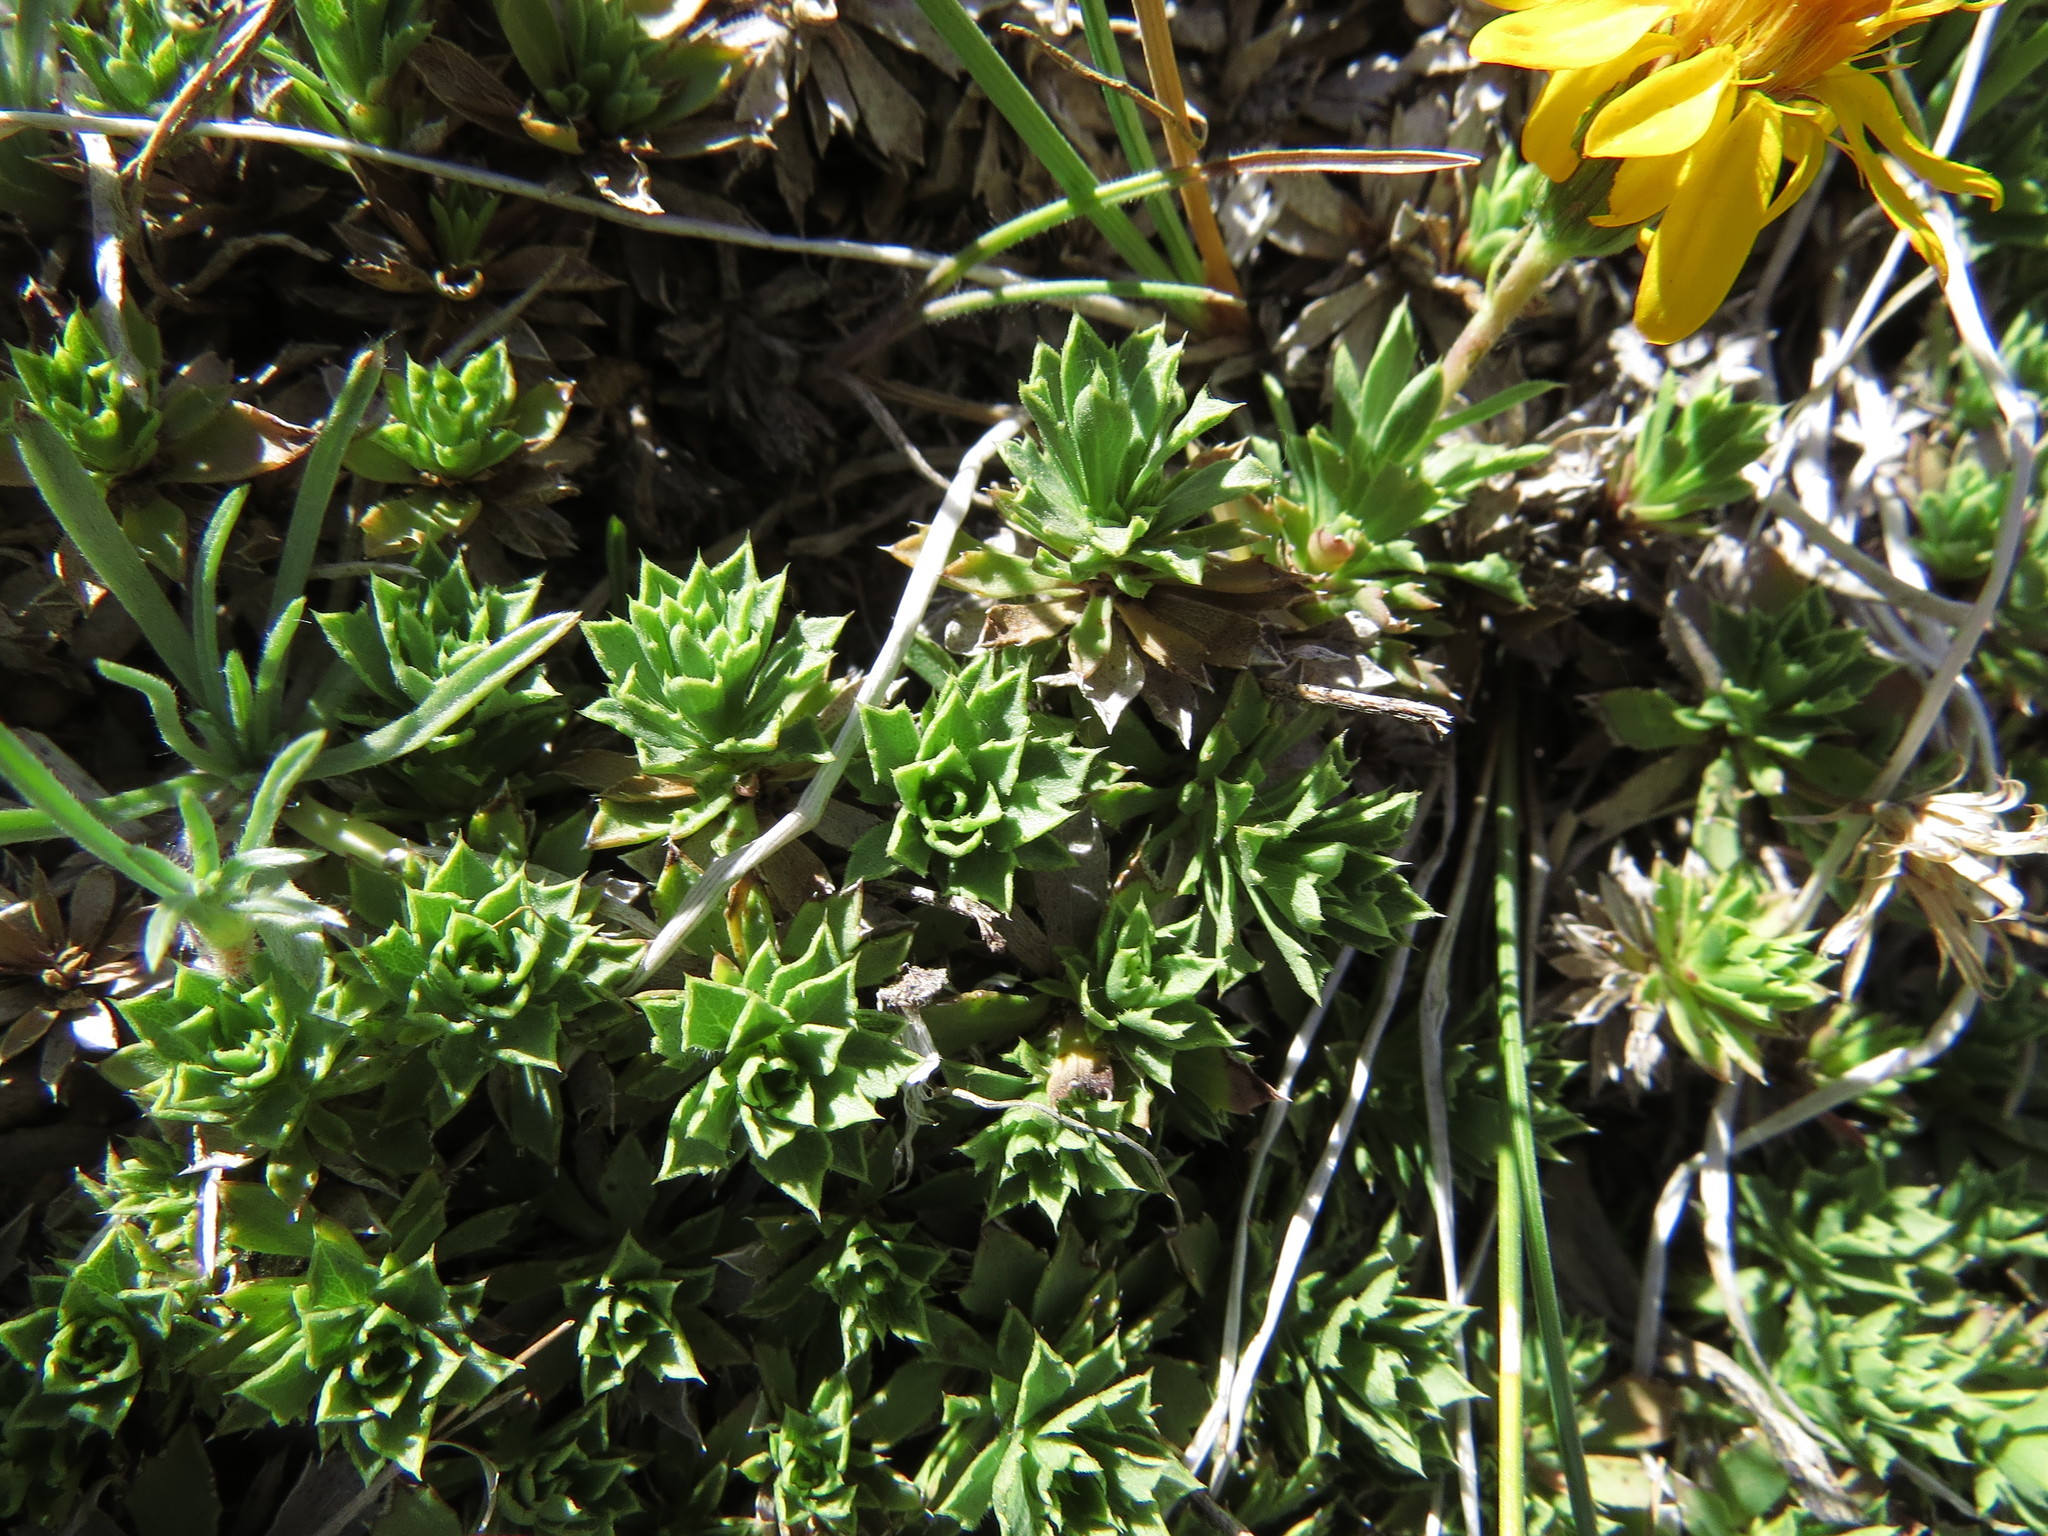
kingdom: Plantae
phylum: Tracheophyta
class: Magnoliopsida
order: Asterales
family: Asteraceae
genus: Haplopappus
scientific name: Haplopappus anthylloides
